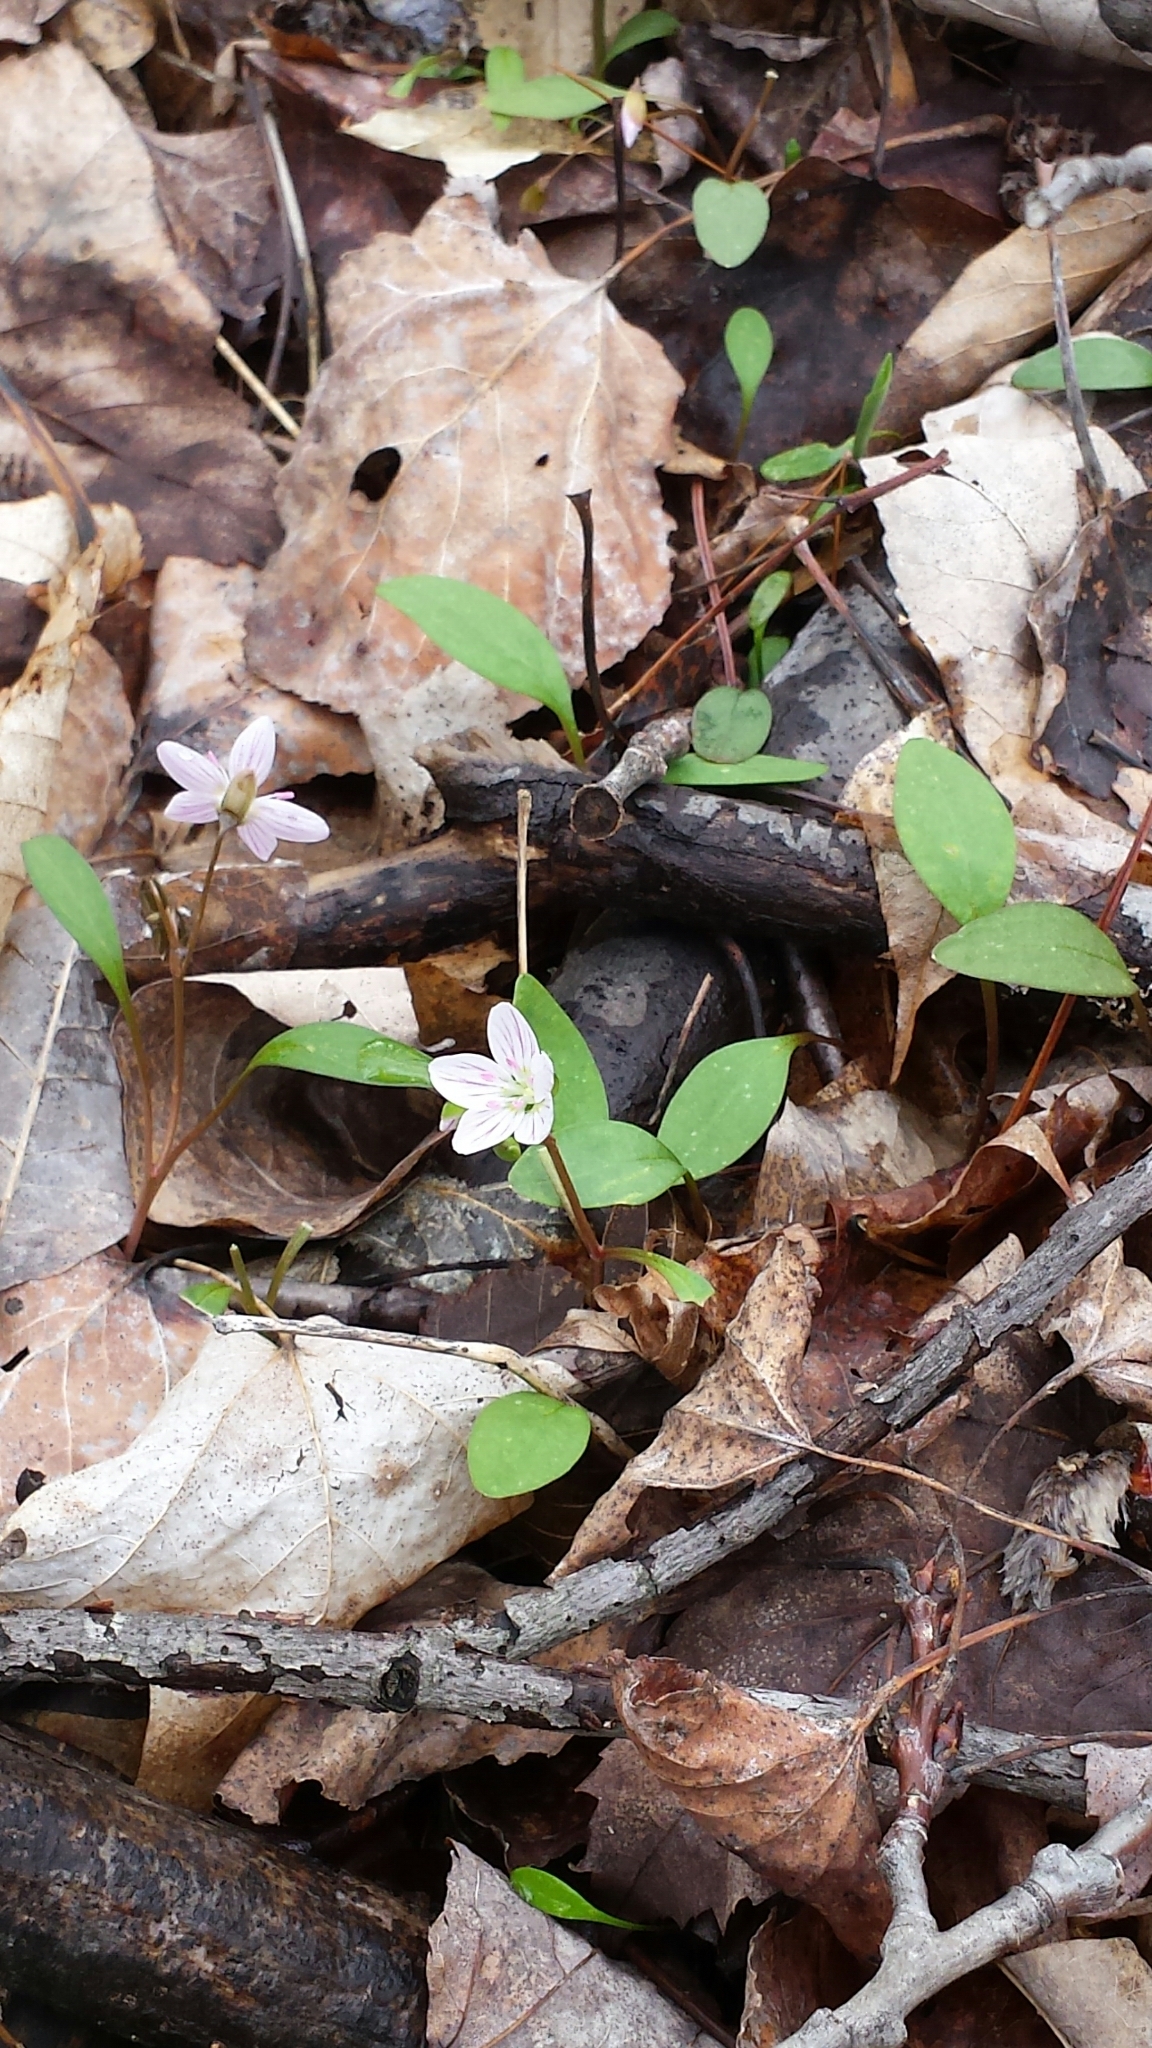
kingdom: Plantae
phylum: Tracheophyta
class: Magnoliopsida
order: Caryophyllales
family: Montiaceae
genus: Claytonia
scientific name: Claytonia caroliniana
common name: Carolina spring beauty
